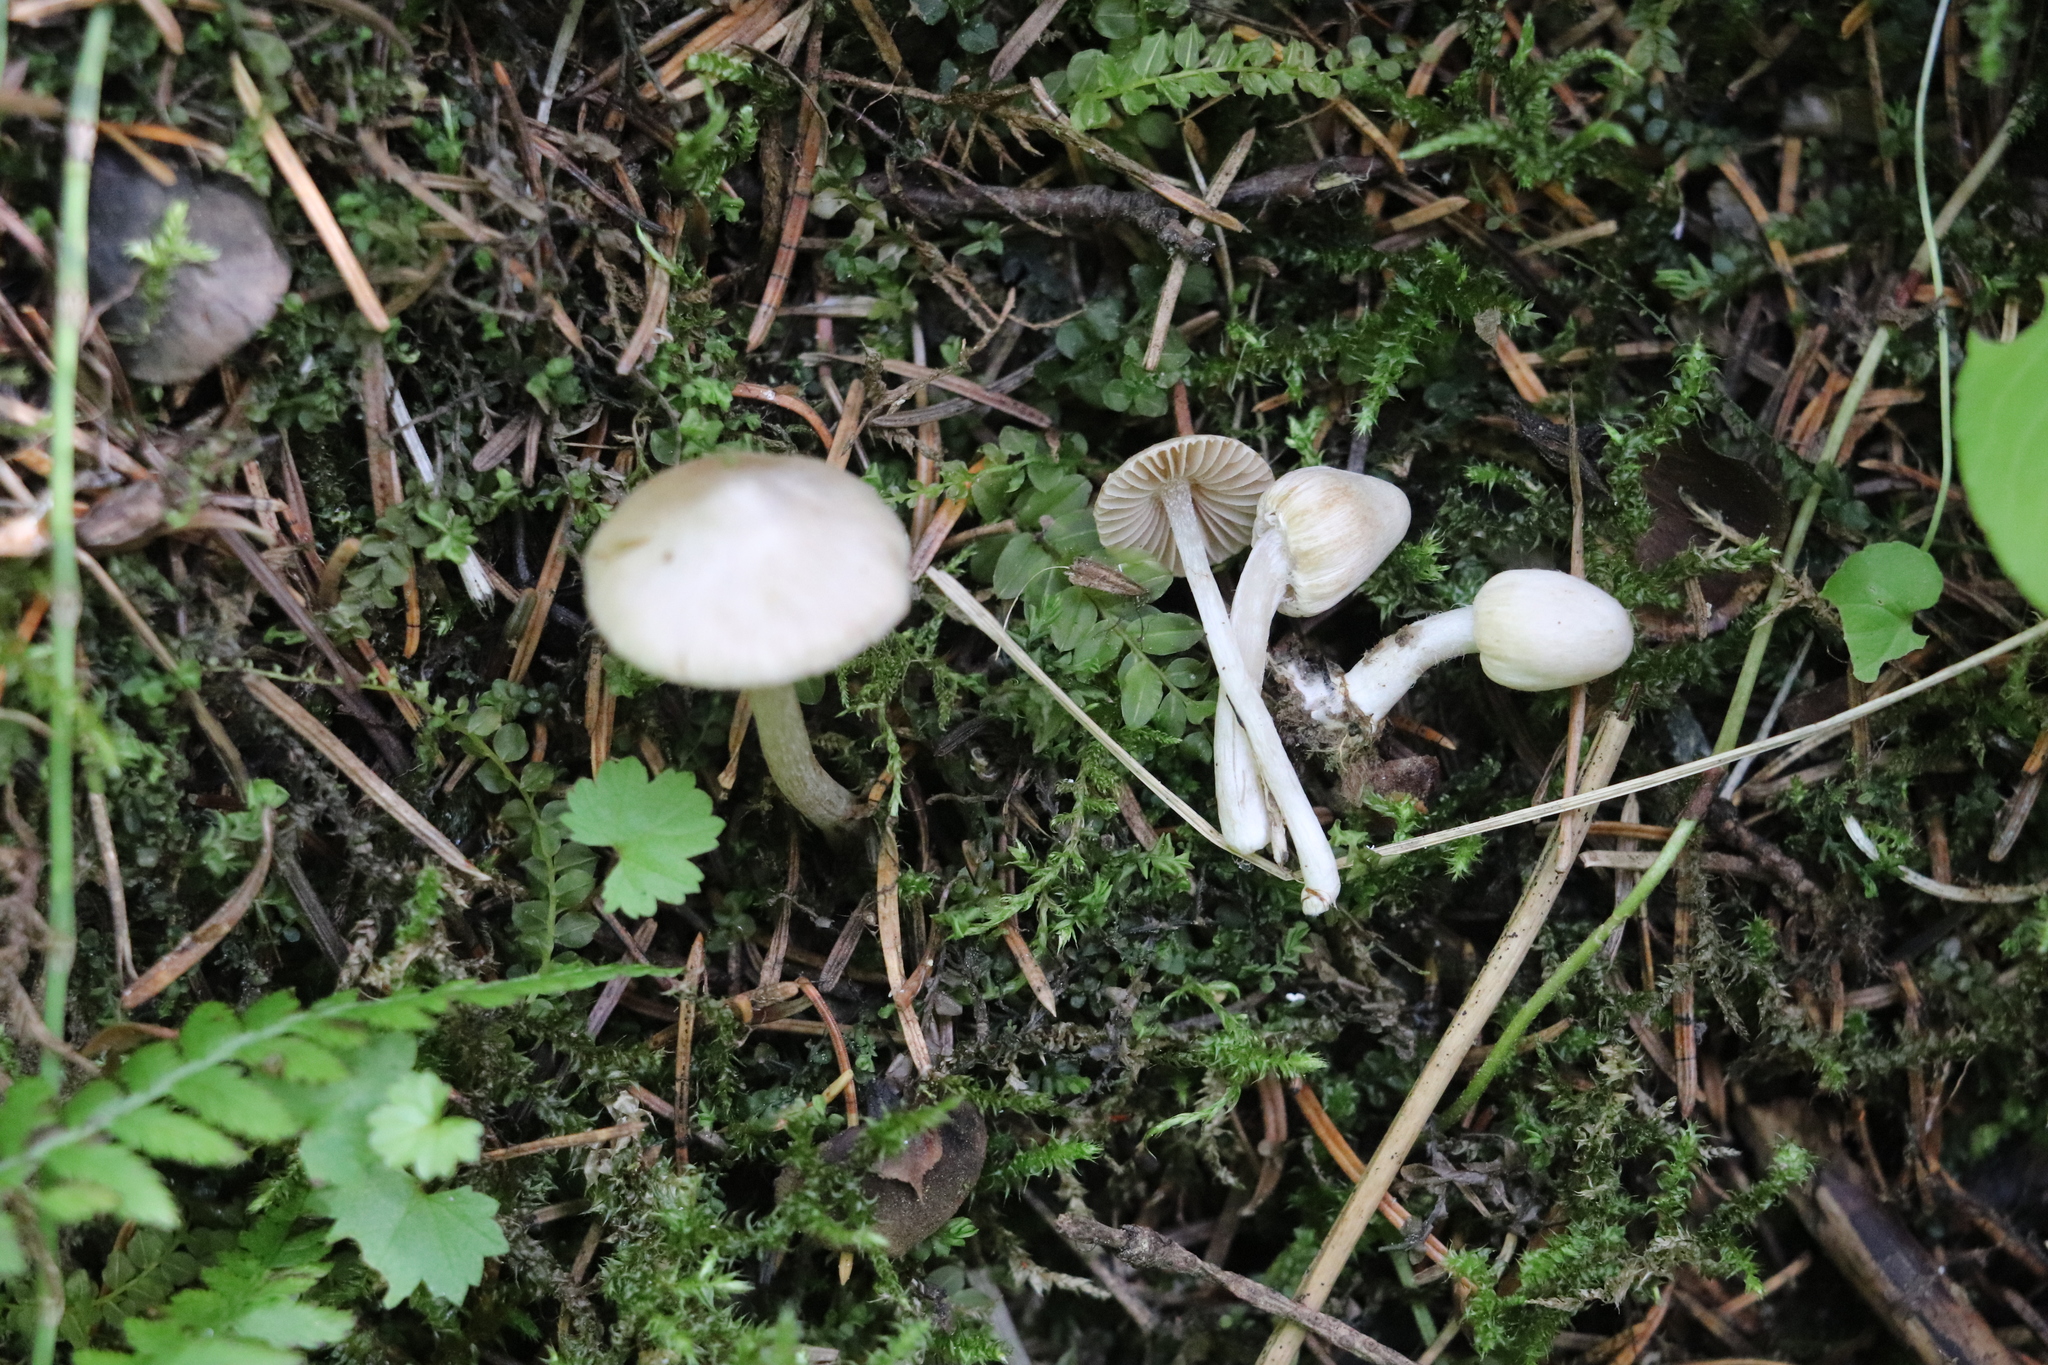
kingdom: Fungi
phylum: Basidiomycota
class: Agaricomycetes
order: Agaricales
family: Inocybaceae
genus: Inocybe
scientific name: Inocybe geophylla
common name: White fibrecap
